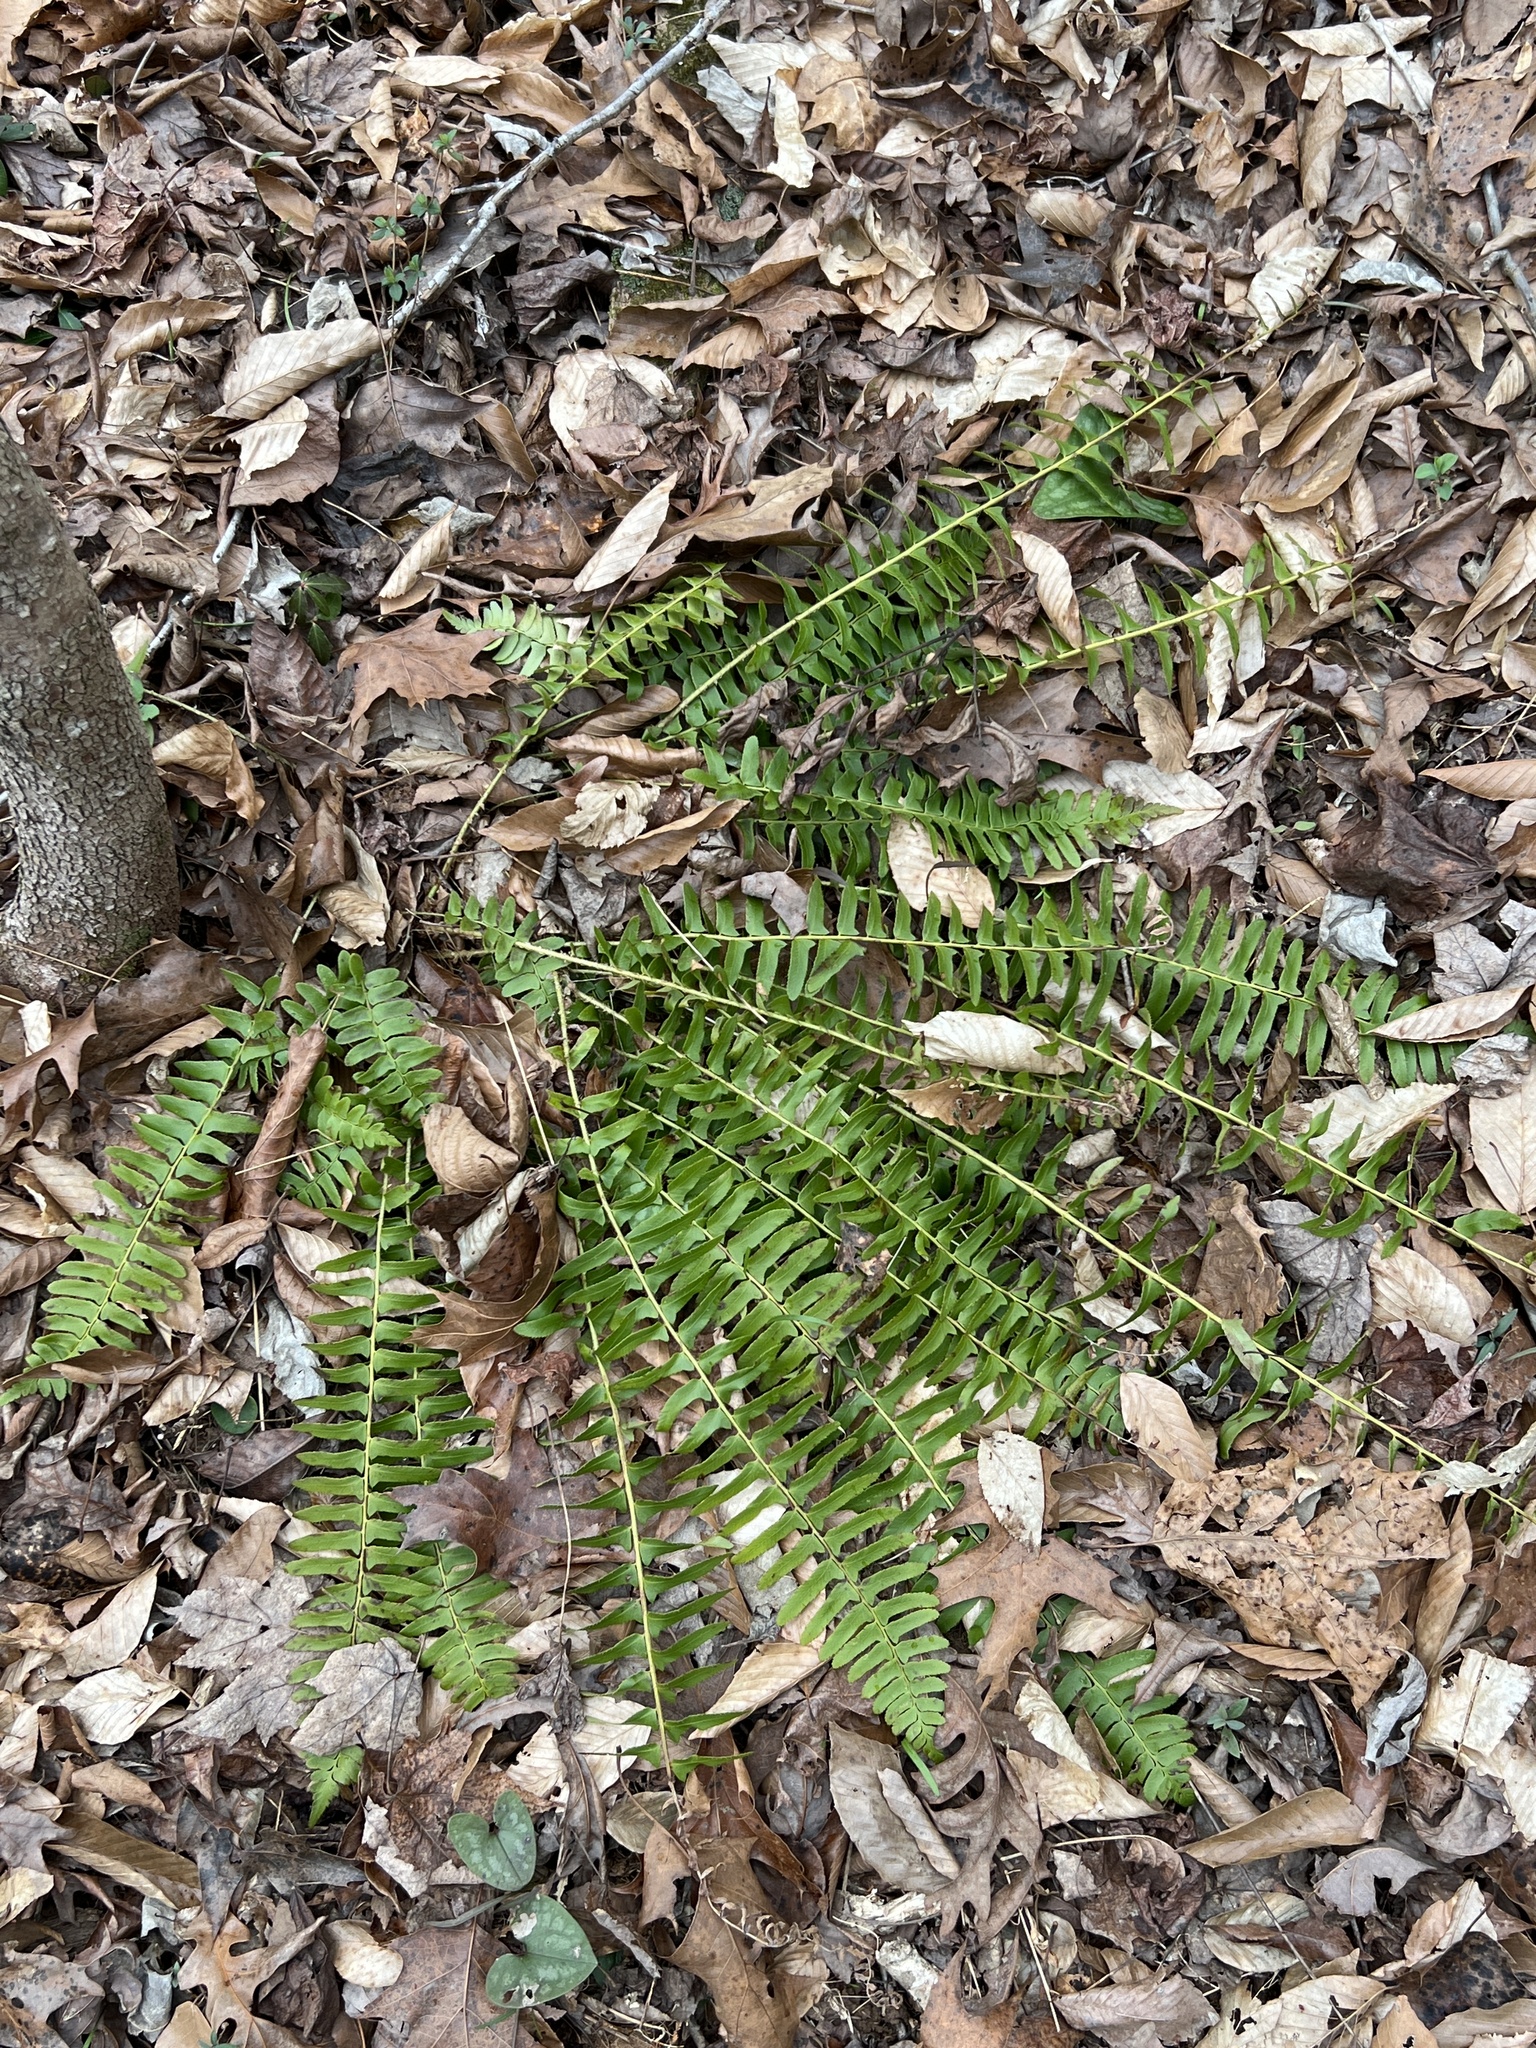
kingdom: Plantae
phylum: Tracheophyta
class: Polypodiopsida
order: Polypodiales
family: Dryopteridaceae
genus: Polystichum
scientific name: Polystichum acrostichoides
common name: Christmas fern
